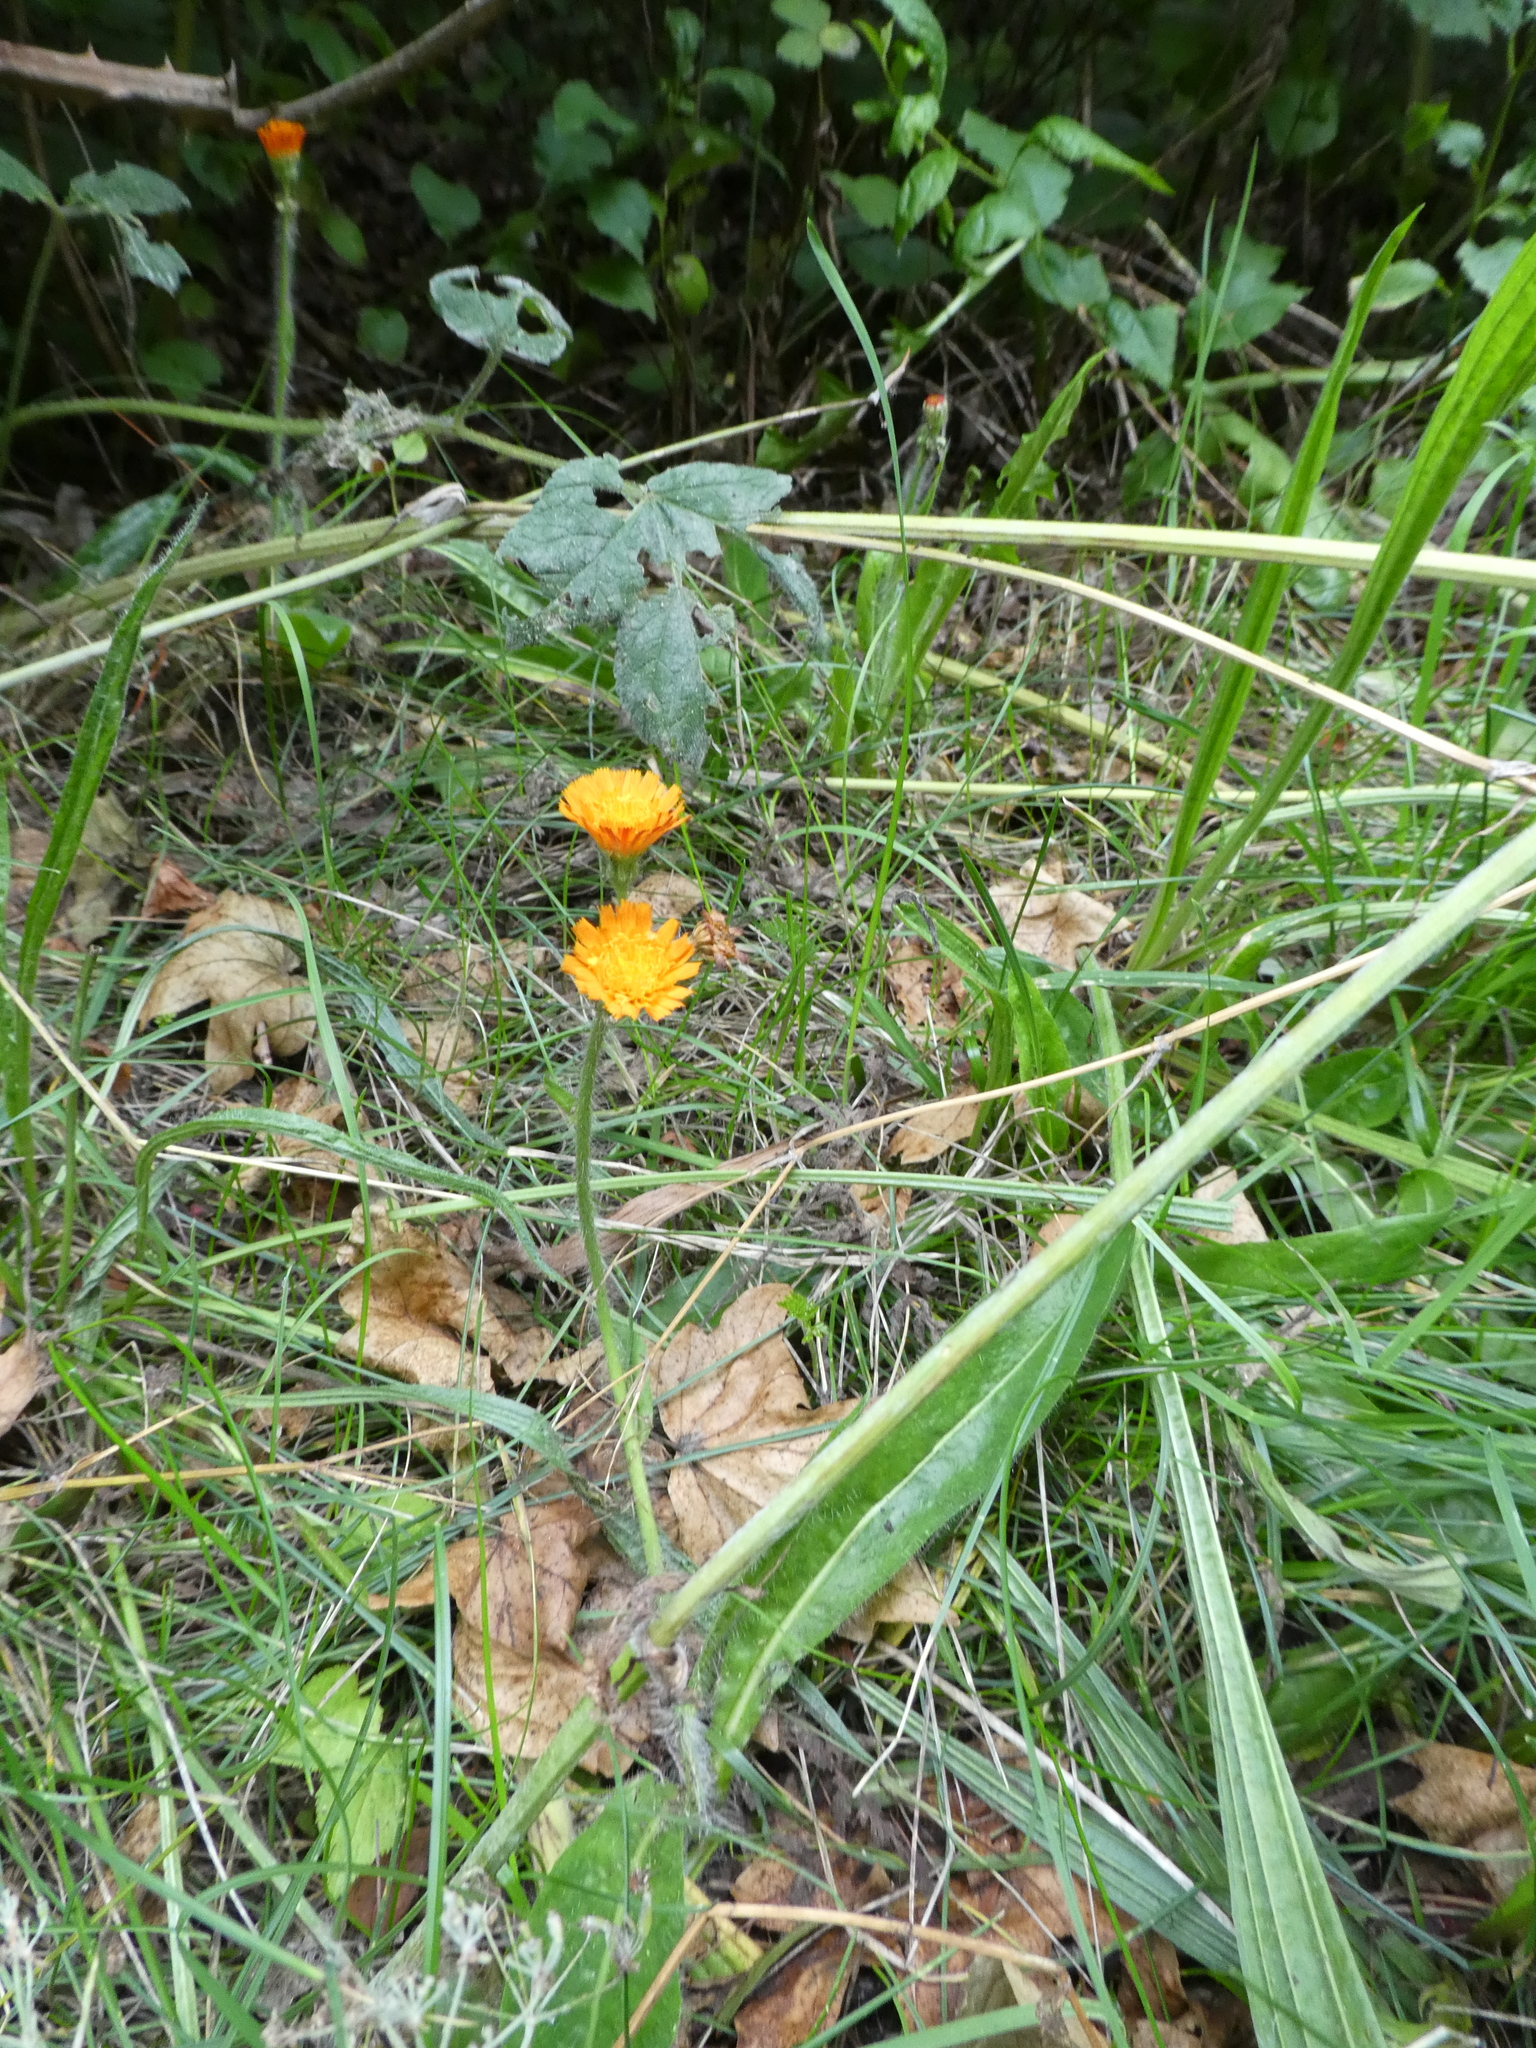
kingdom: Plantae
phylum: Tracheophyta
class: Magnoliopsida
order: Asterales
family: Asteraceae
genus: Pilosella
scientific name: Pilosella aurantiaca
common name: Fox-and-cubs
